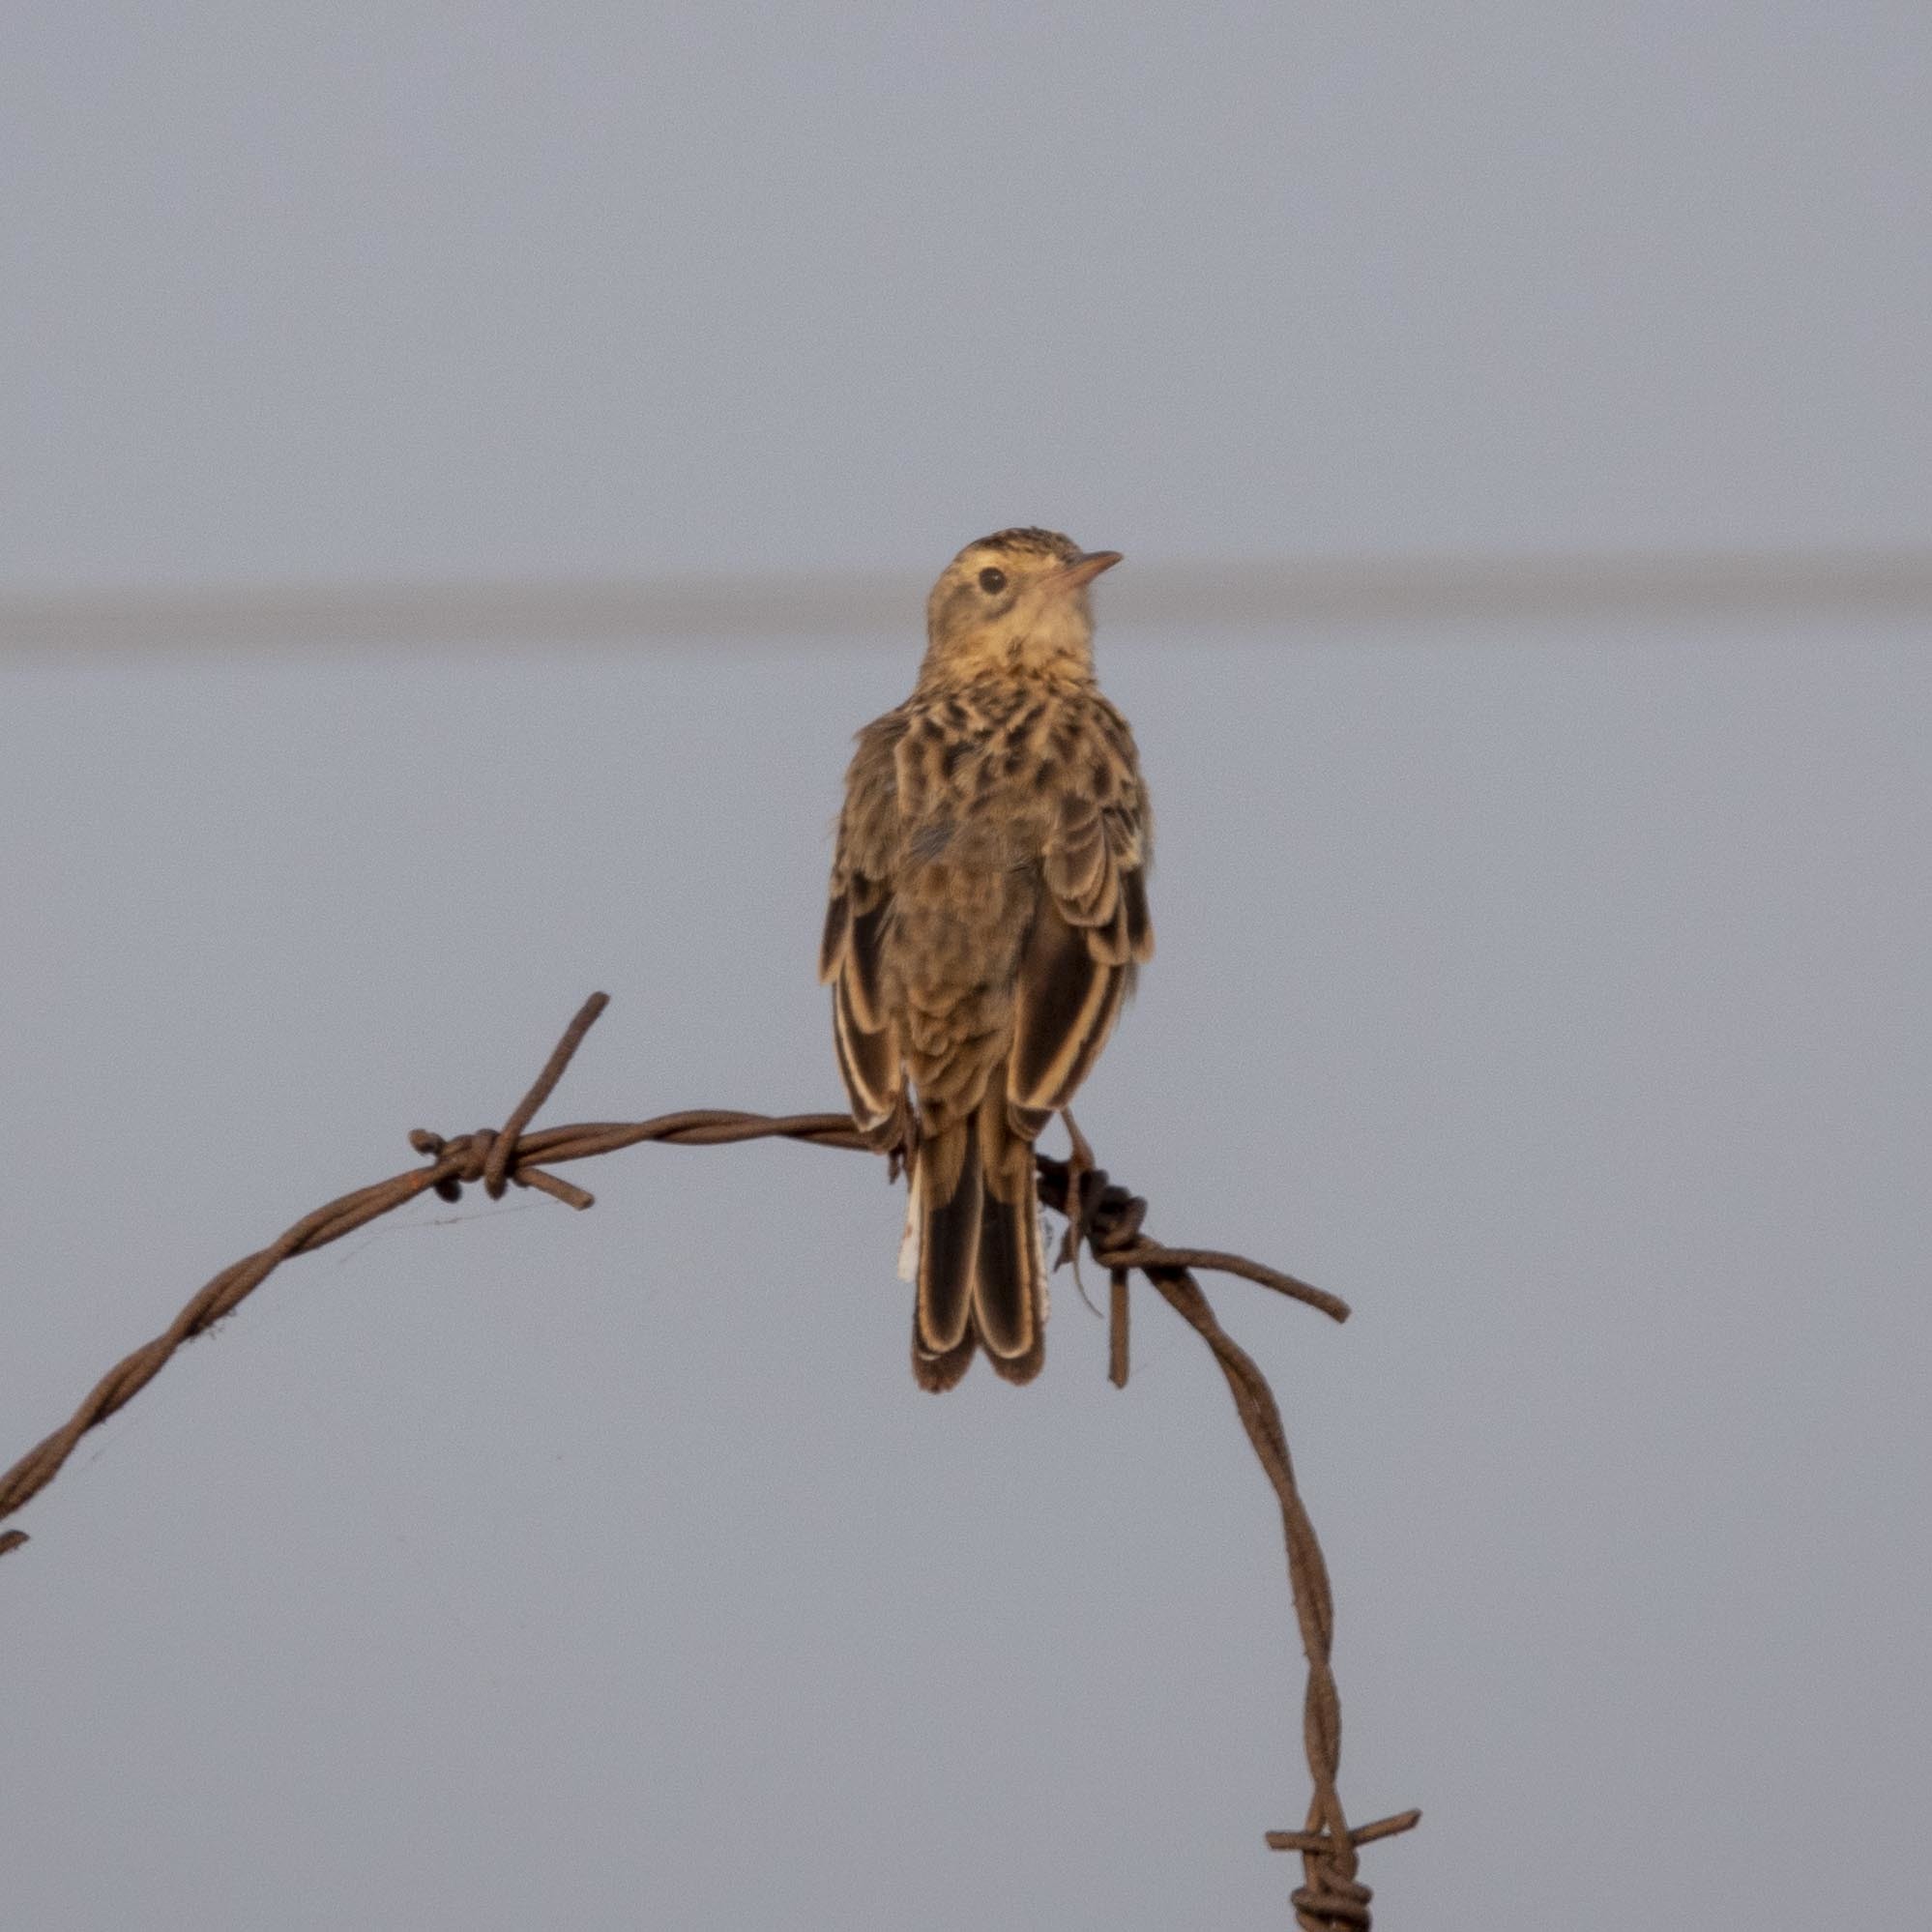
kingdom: Animalia
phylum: Chordata
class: Aves
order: Passeriformes
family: Motacillidae
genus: Anthus
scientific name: Anthus rufulus
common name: Paddyfield pipit
